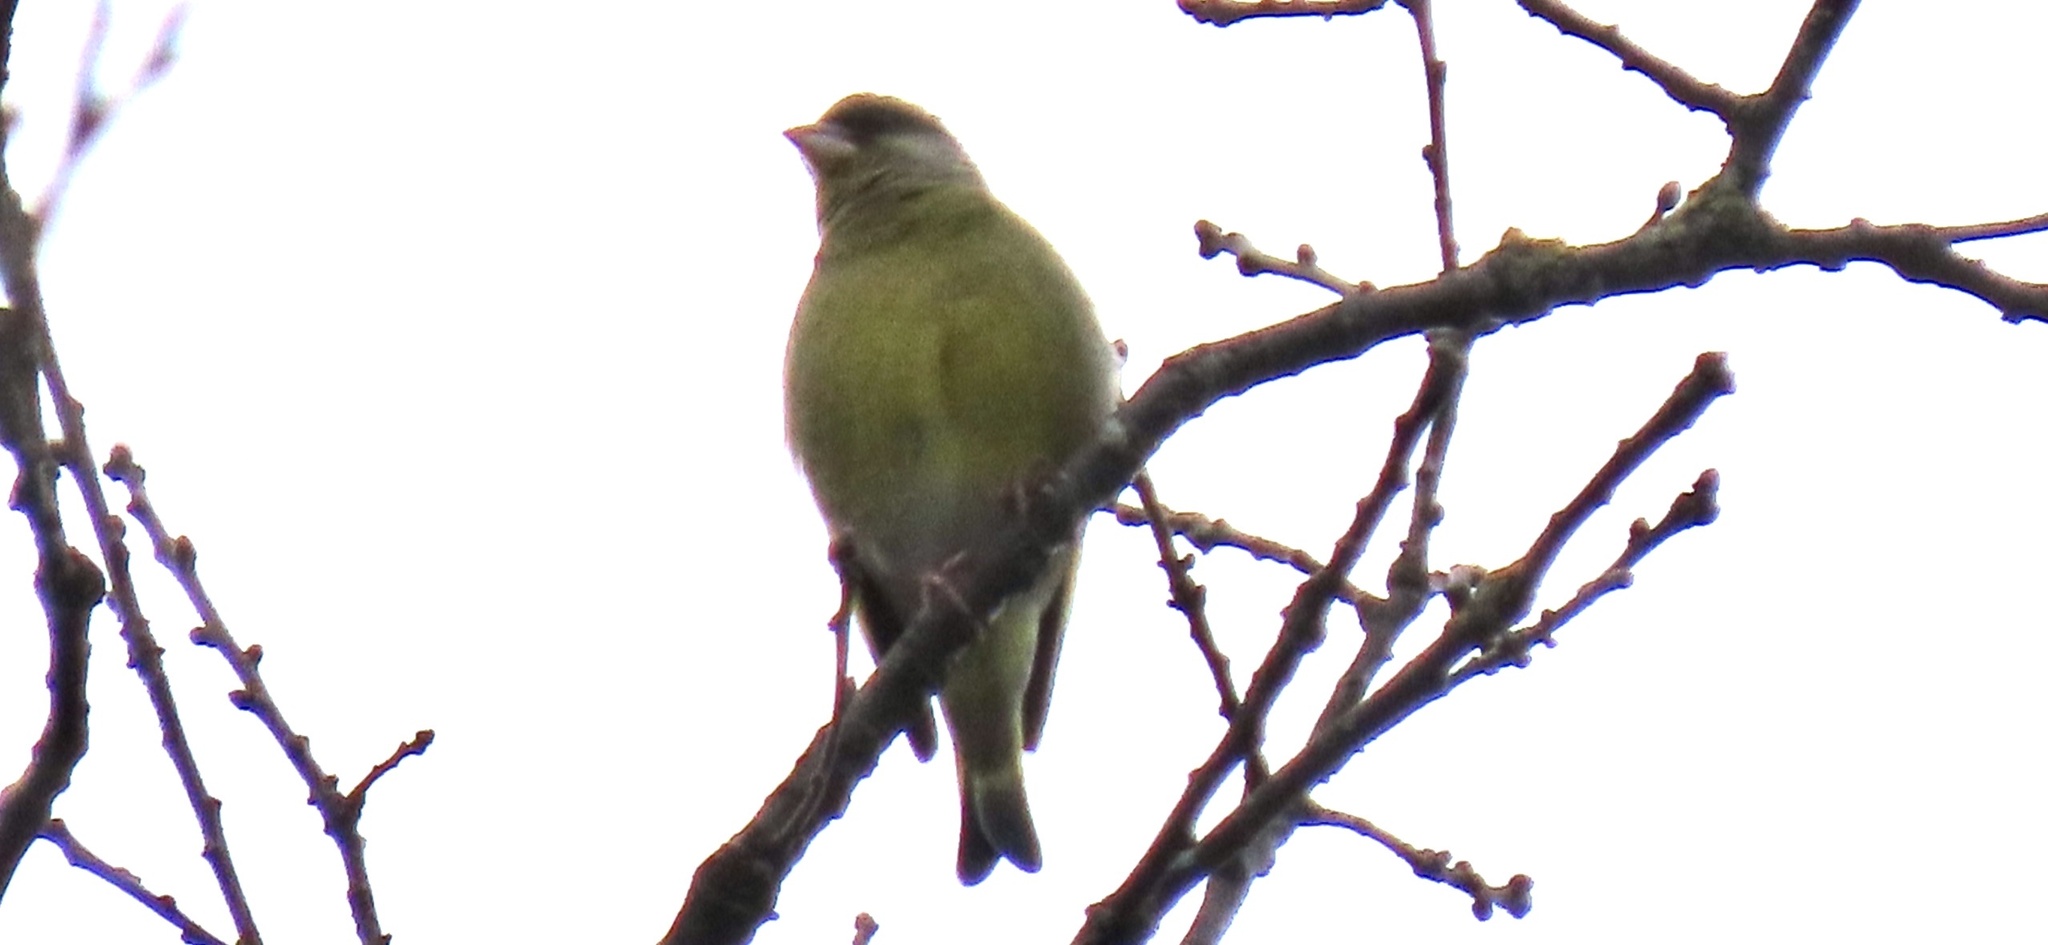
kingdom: Plantae
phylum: Tracheophyta
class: Liliopsida
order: Poales
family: Poaceae
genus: Chloris
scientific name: Chloris chloris
